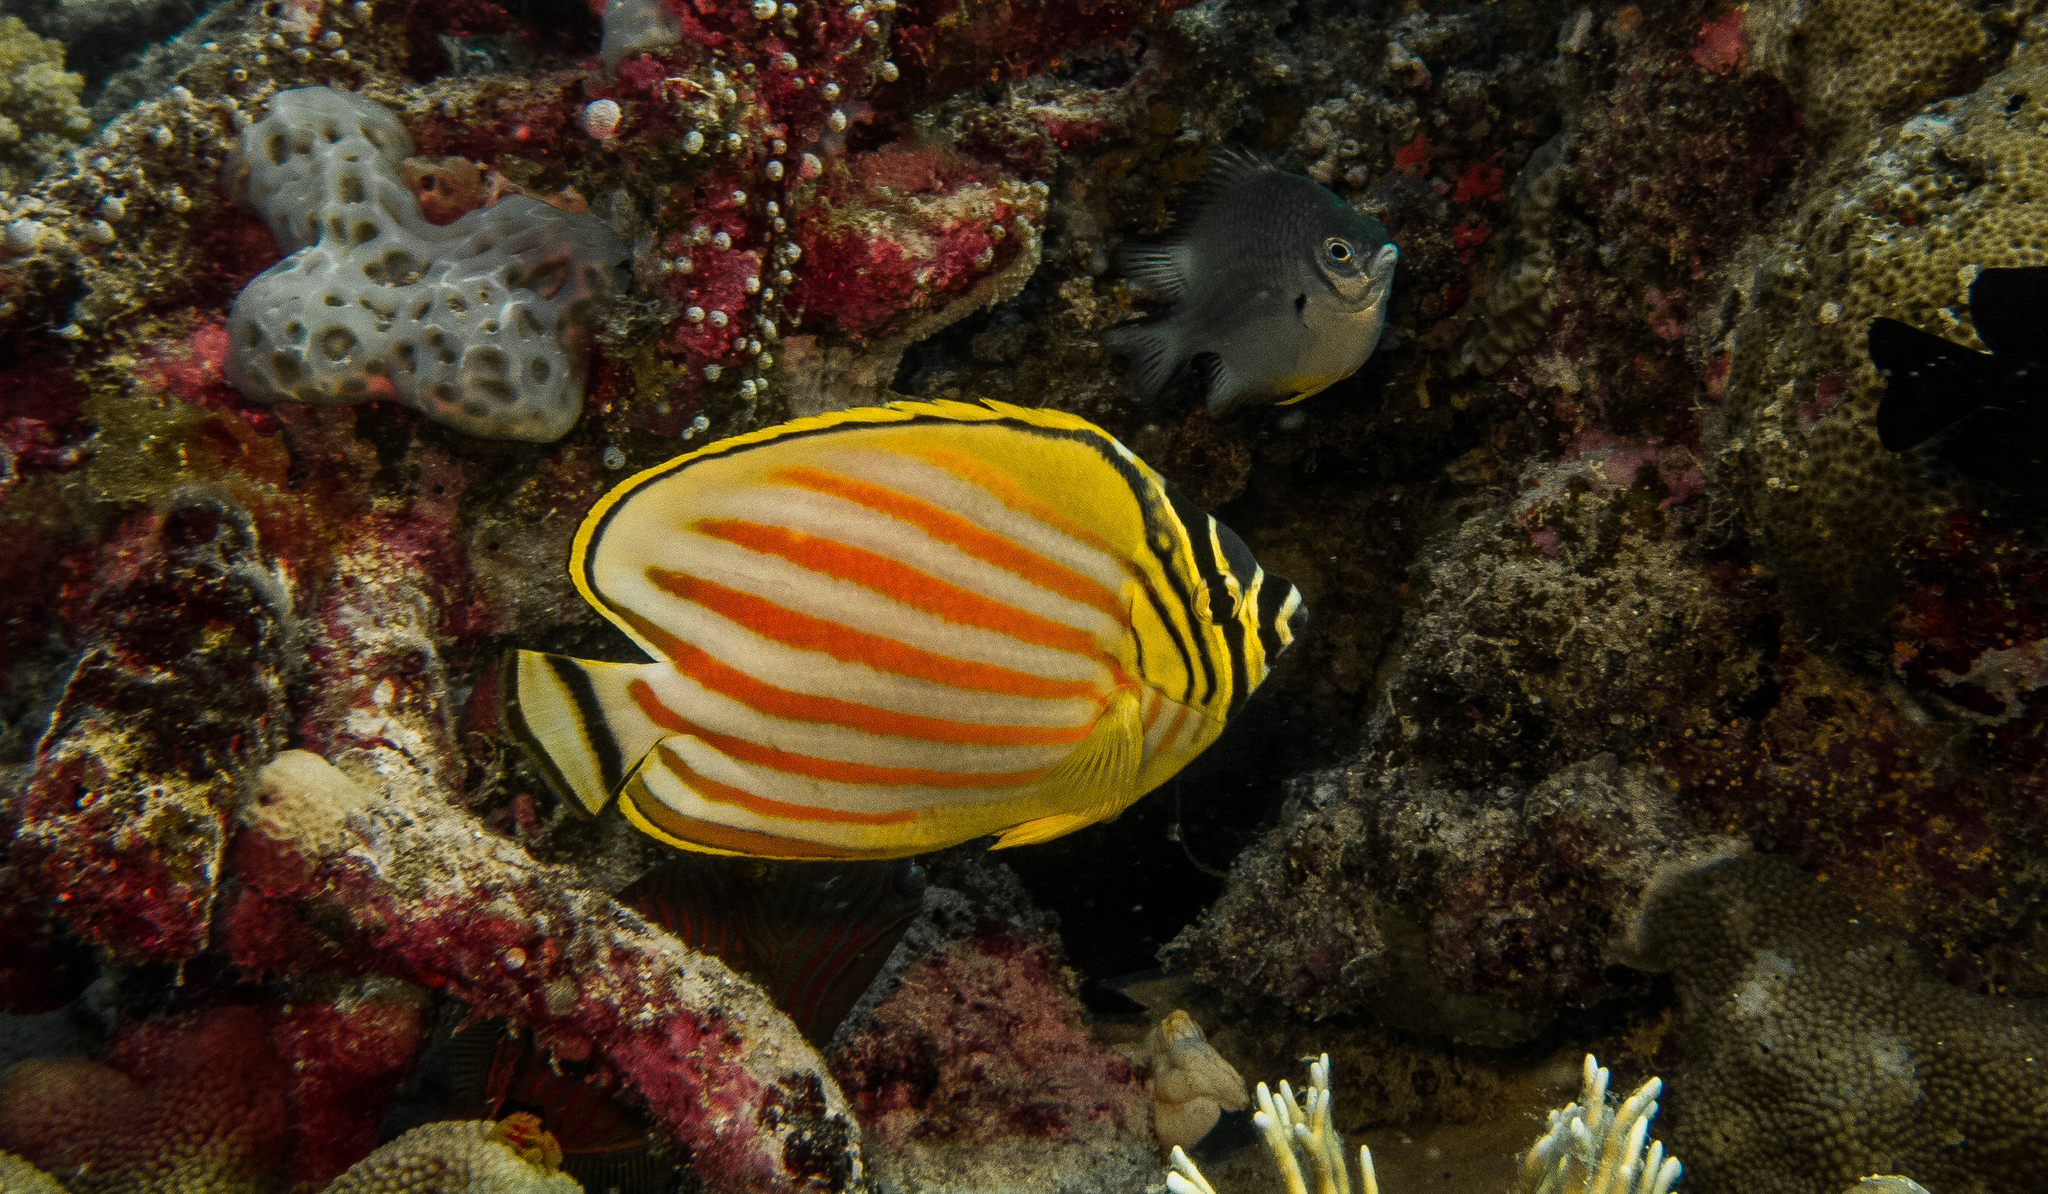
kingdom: Animalia
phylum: Chordata
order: Perciformes
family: Chaetodontidae
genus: Chaetodon
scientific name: Chaetodon ornatissimus
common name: Ornate butterflyfish
